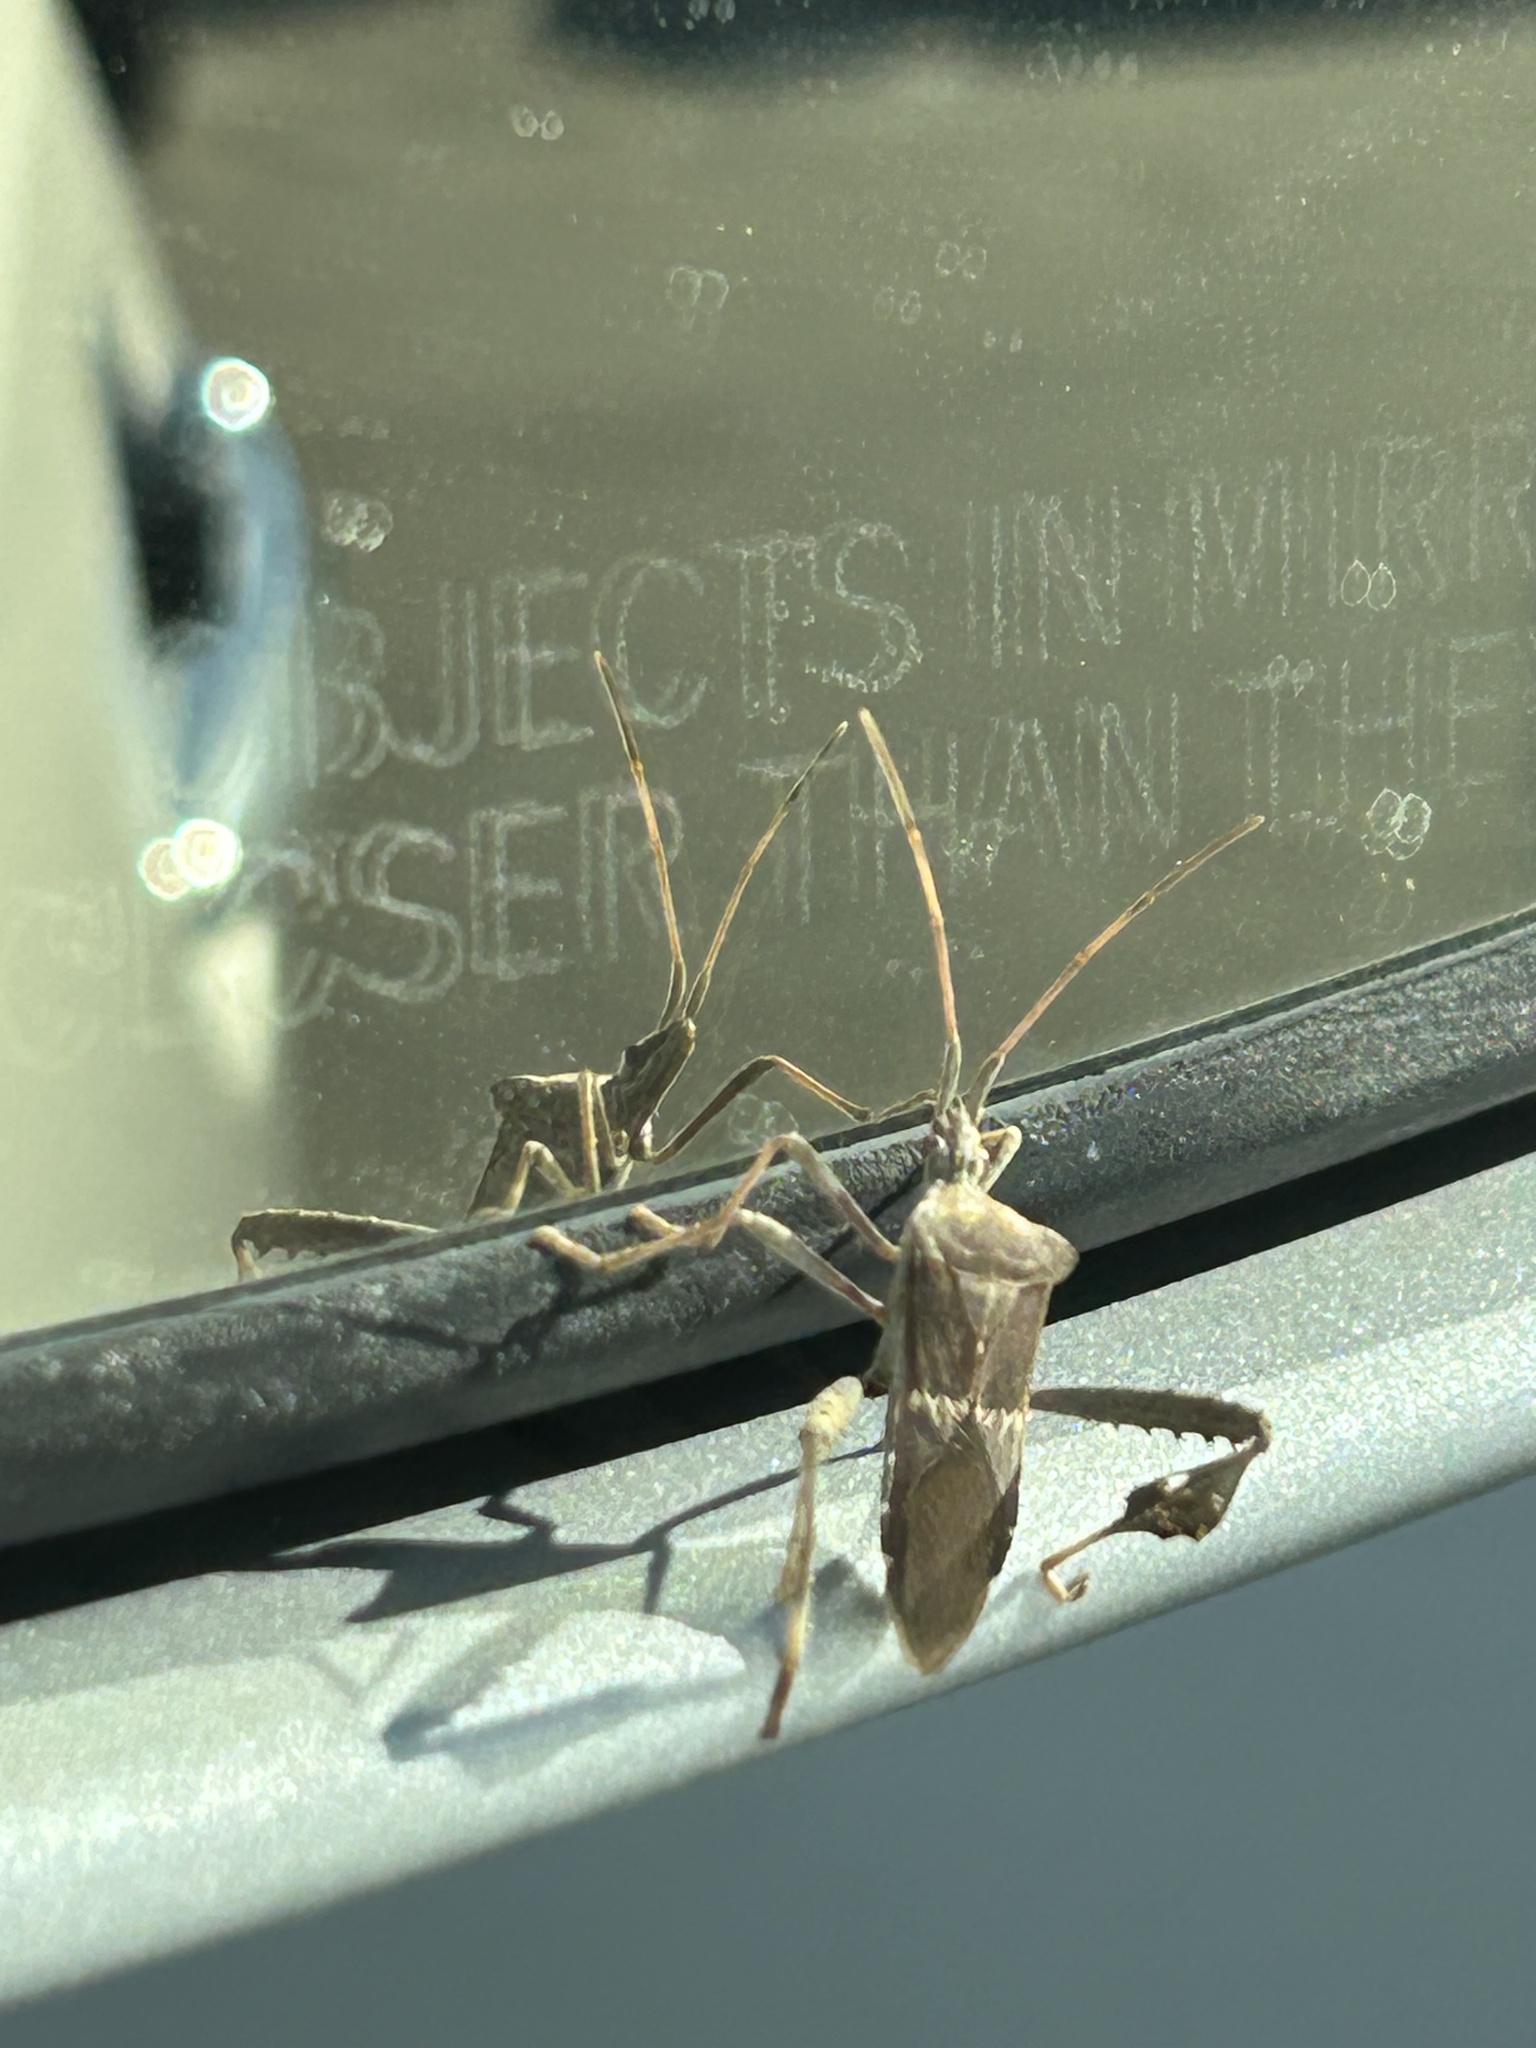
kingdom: Animalia
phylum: Arthropoda
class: Insecta
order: Hemiptera
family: Coreidae
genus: Leptoglossus
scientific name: Leptoglossus zonatus
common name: Large-legged bug
